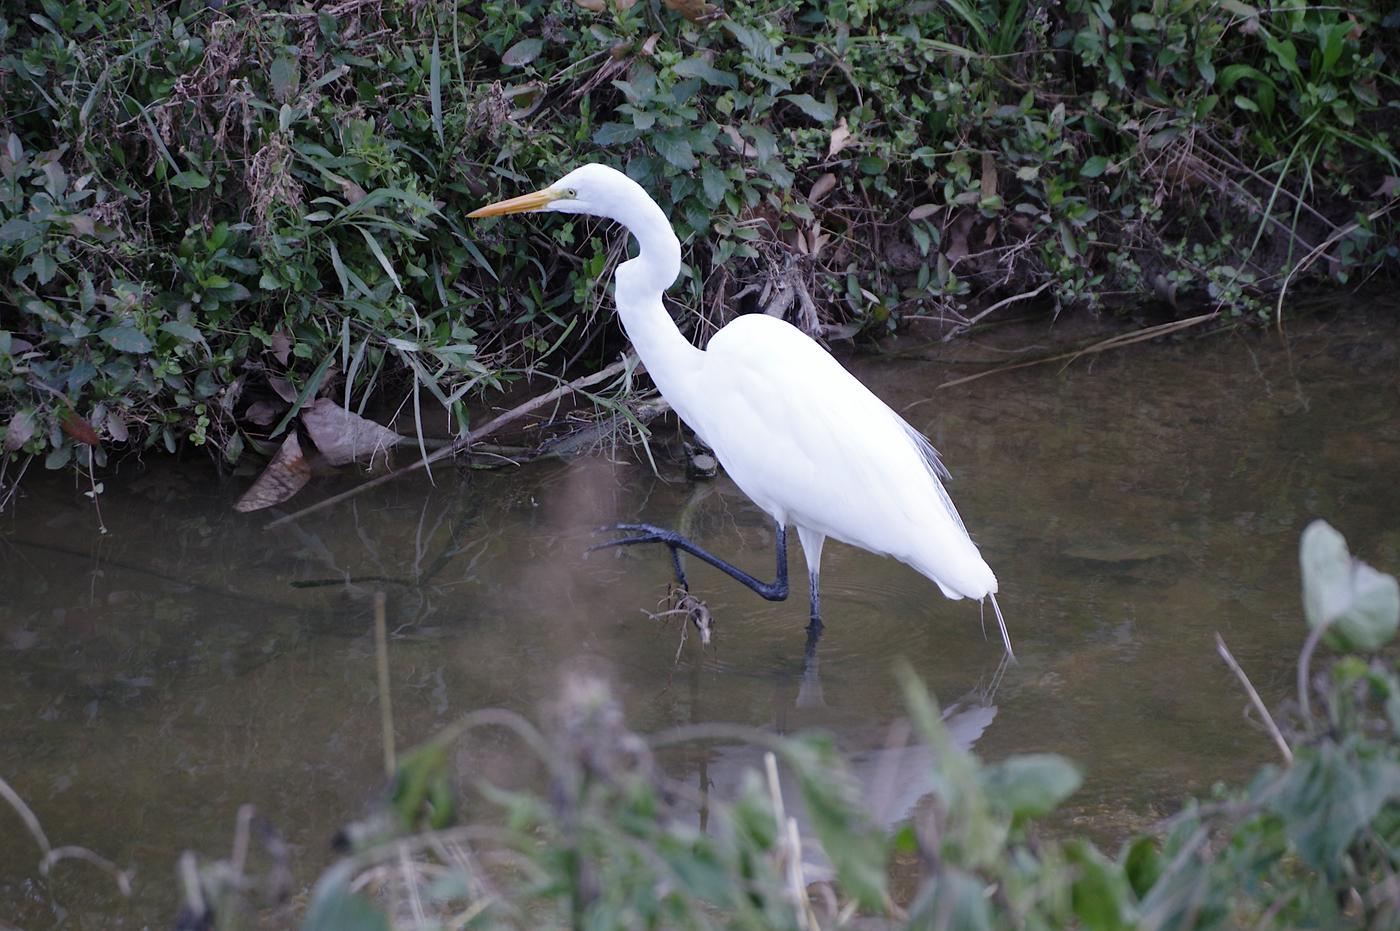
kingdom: Animalia
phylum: Chordata
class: Aves
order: Pelecaniformes
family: Ardeidae
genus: Ardea
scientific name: Ardea alba
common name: Great egret
